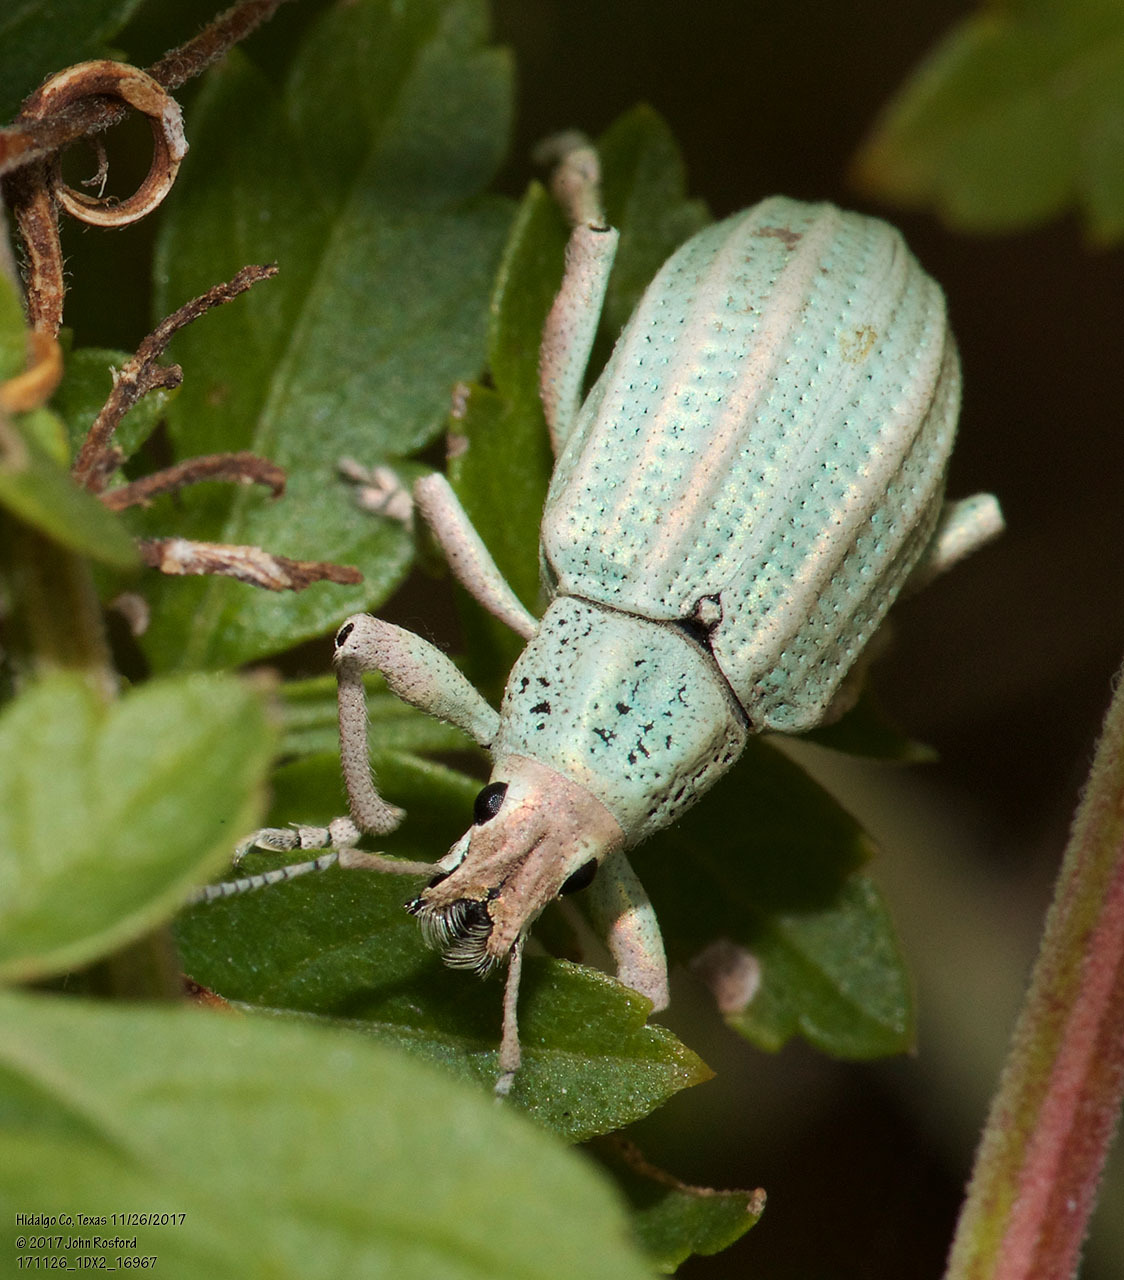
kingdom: Animalia
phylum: Arthropoda
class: Insecta
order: Coleoptera
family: Curculionidae
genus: Compsus
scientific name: Compsus auricephalus
